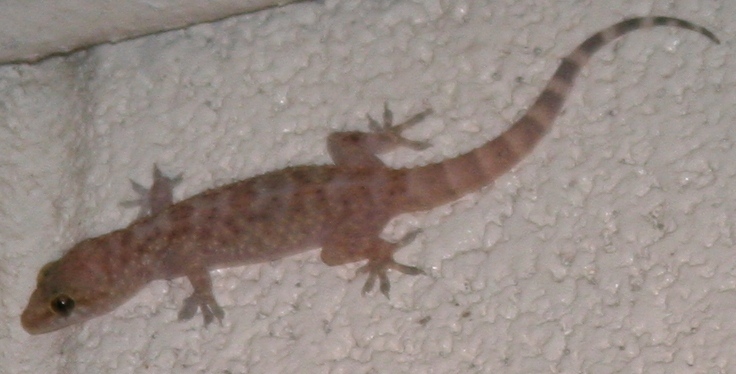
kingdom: Animalia
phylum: Chordata
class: Squamata
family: Gekkonidae
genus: Hemidactylus
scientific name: Hemidactylus turcicus
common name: Turkish gecko
